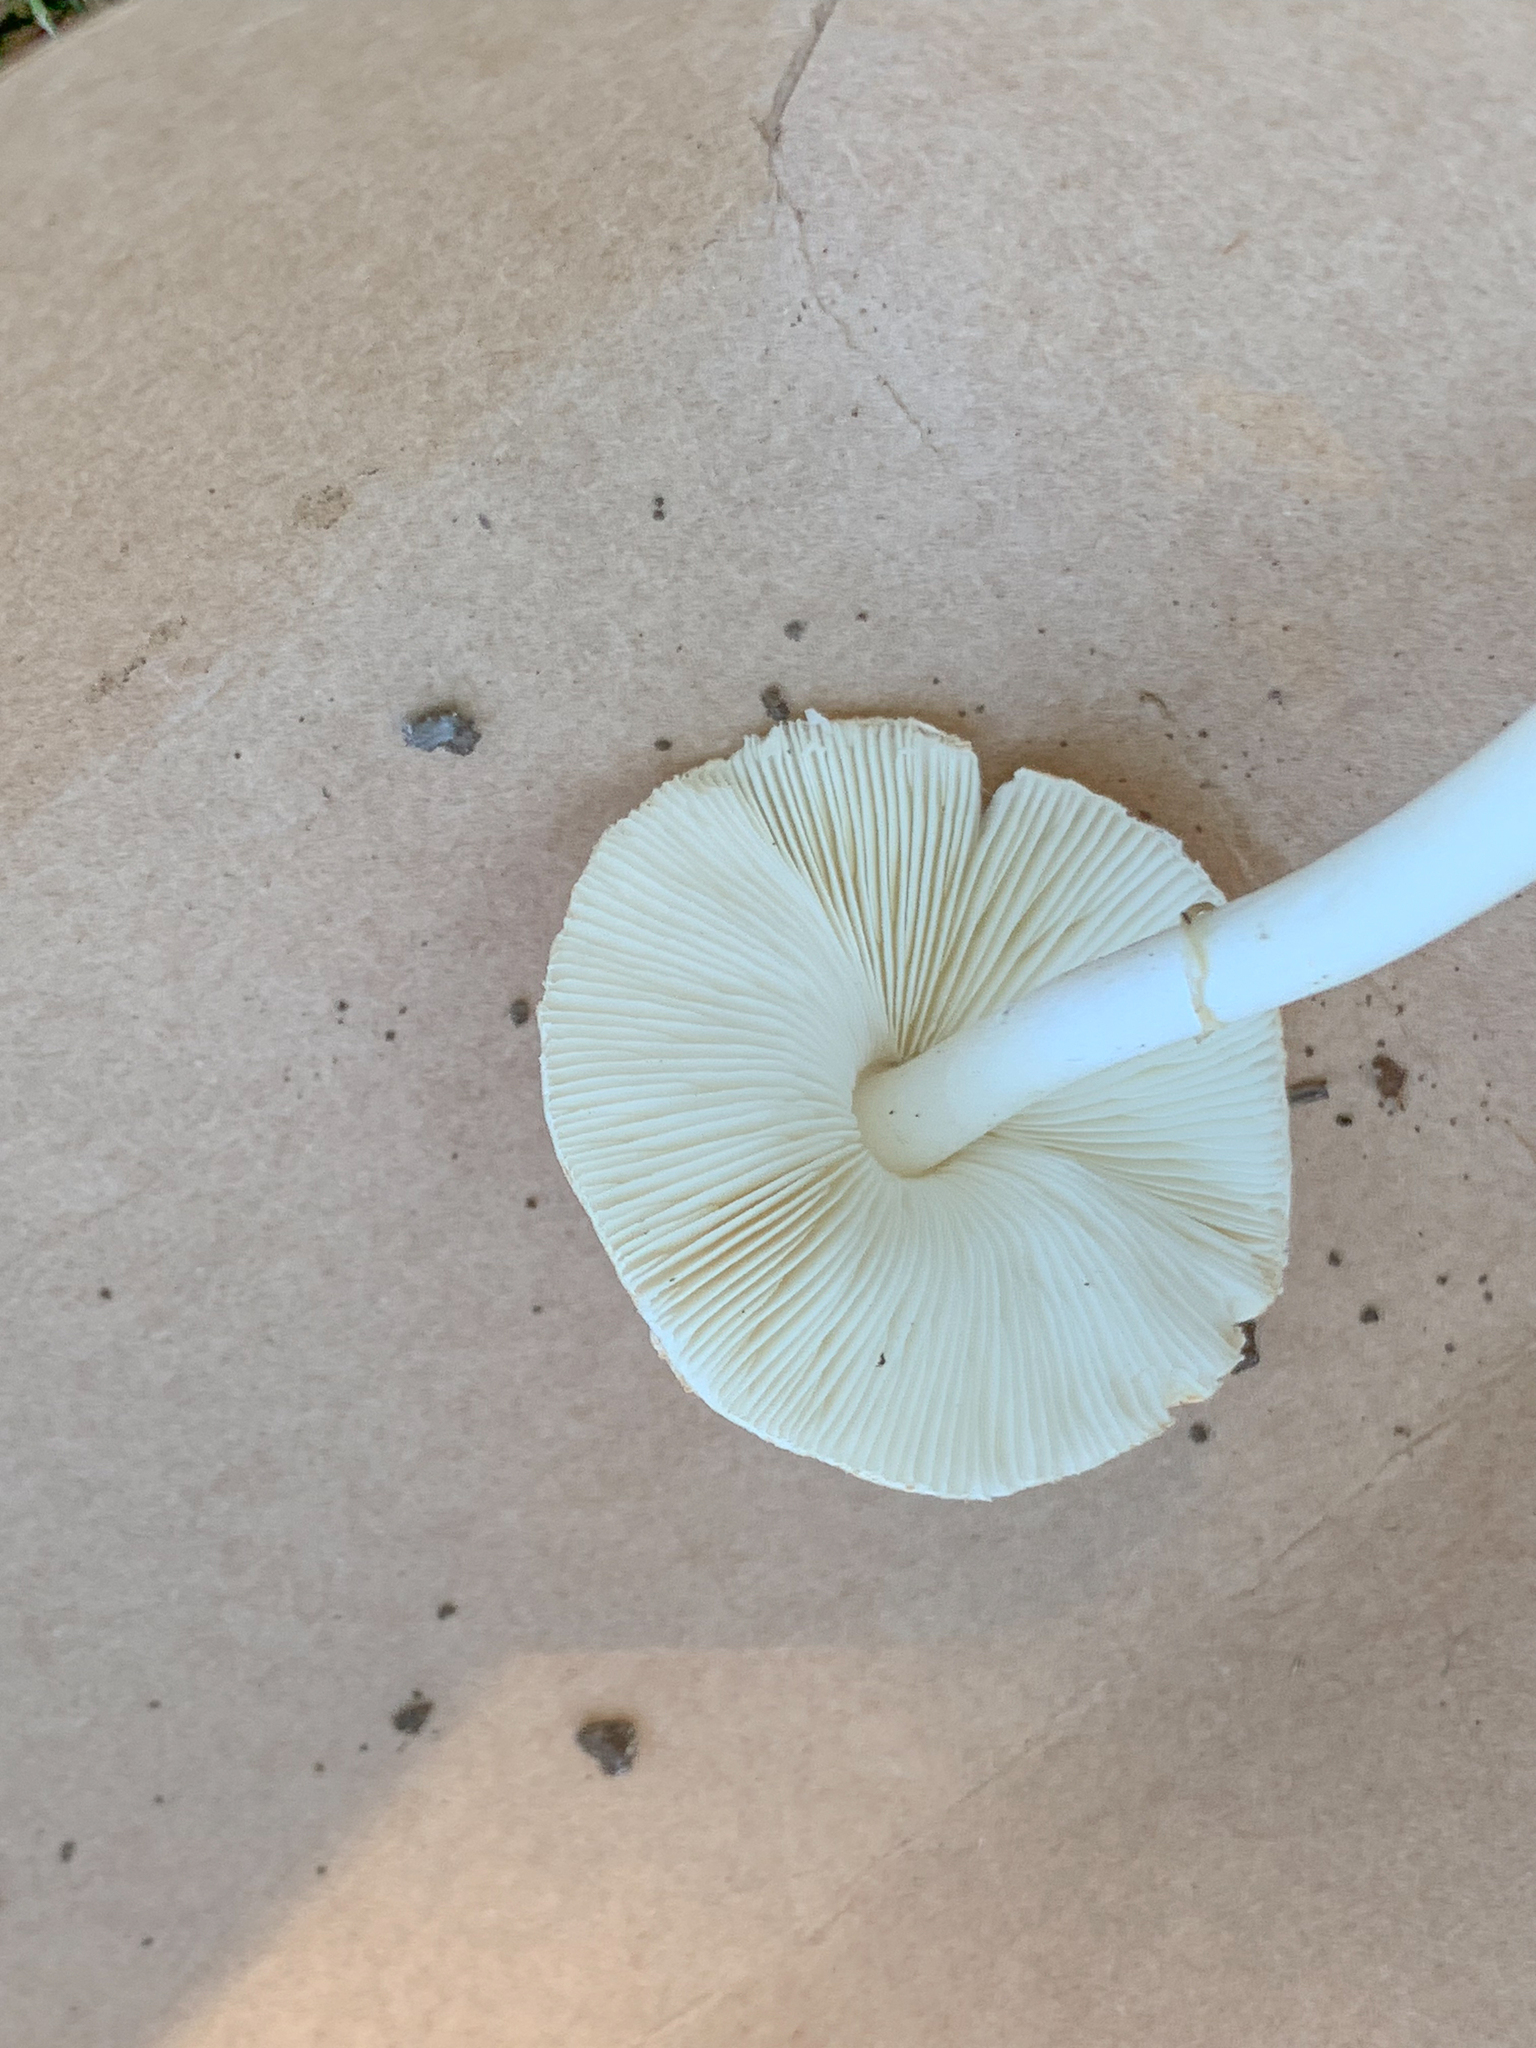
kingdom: Fungi
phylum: Basidiomycota
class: Agaricomycetes
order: Agaricales
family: Agaricaceae
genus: Leucoagaricus
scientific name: Leucoagaricus rubrotinctus
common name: Ruby dapperling
